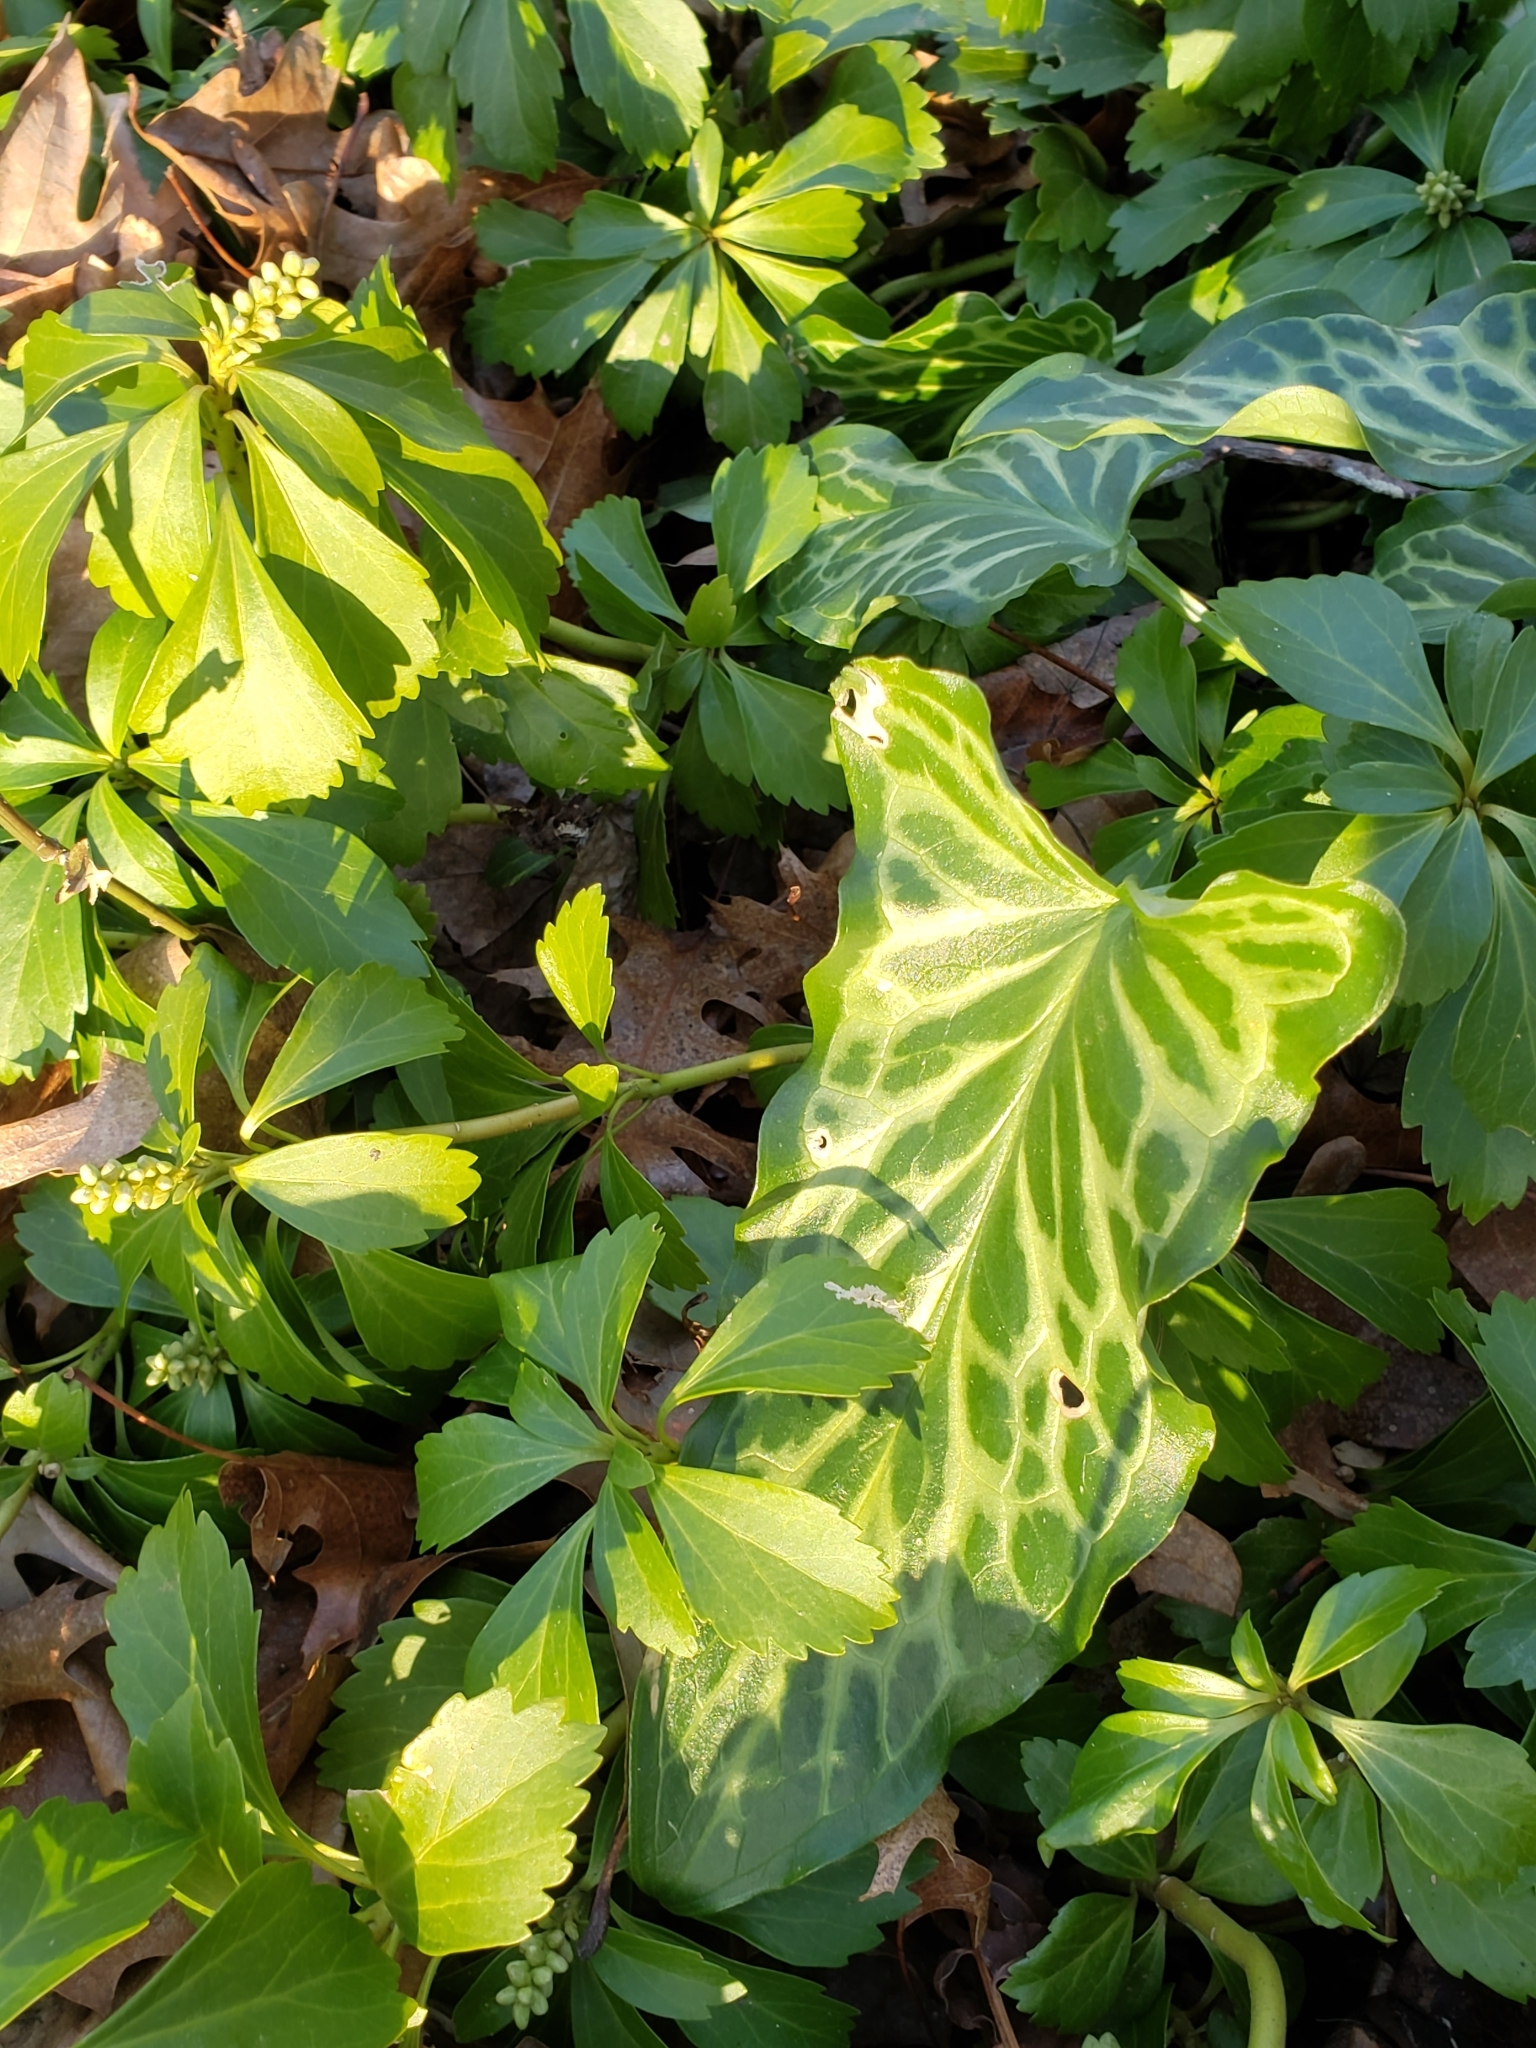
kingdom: Plantae
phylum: Tracheophyta
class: Liliopsida
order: Alismatales
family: Araceae
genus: Arum
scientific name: Arum italicum
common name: Italian lords-and-ladies
